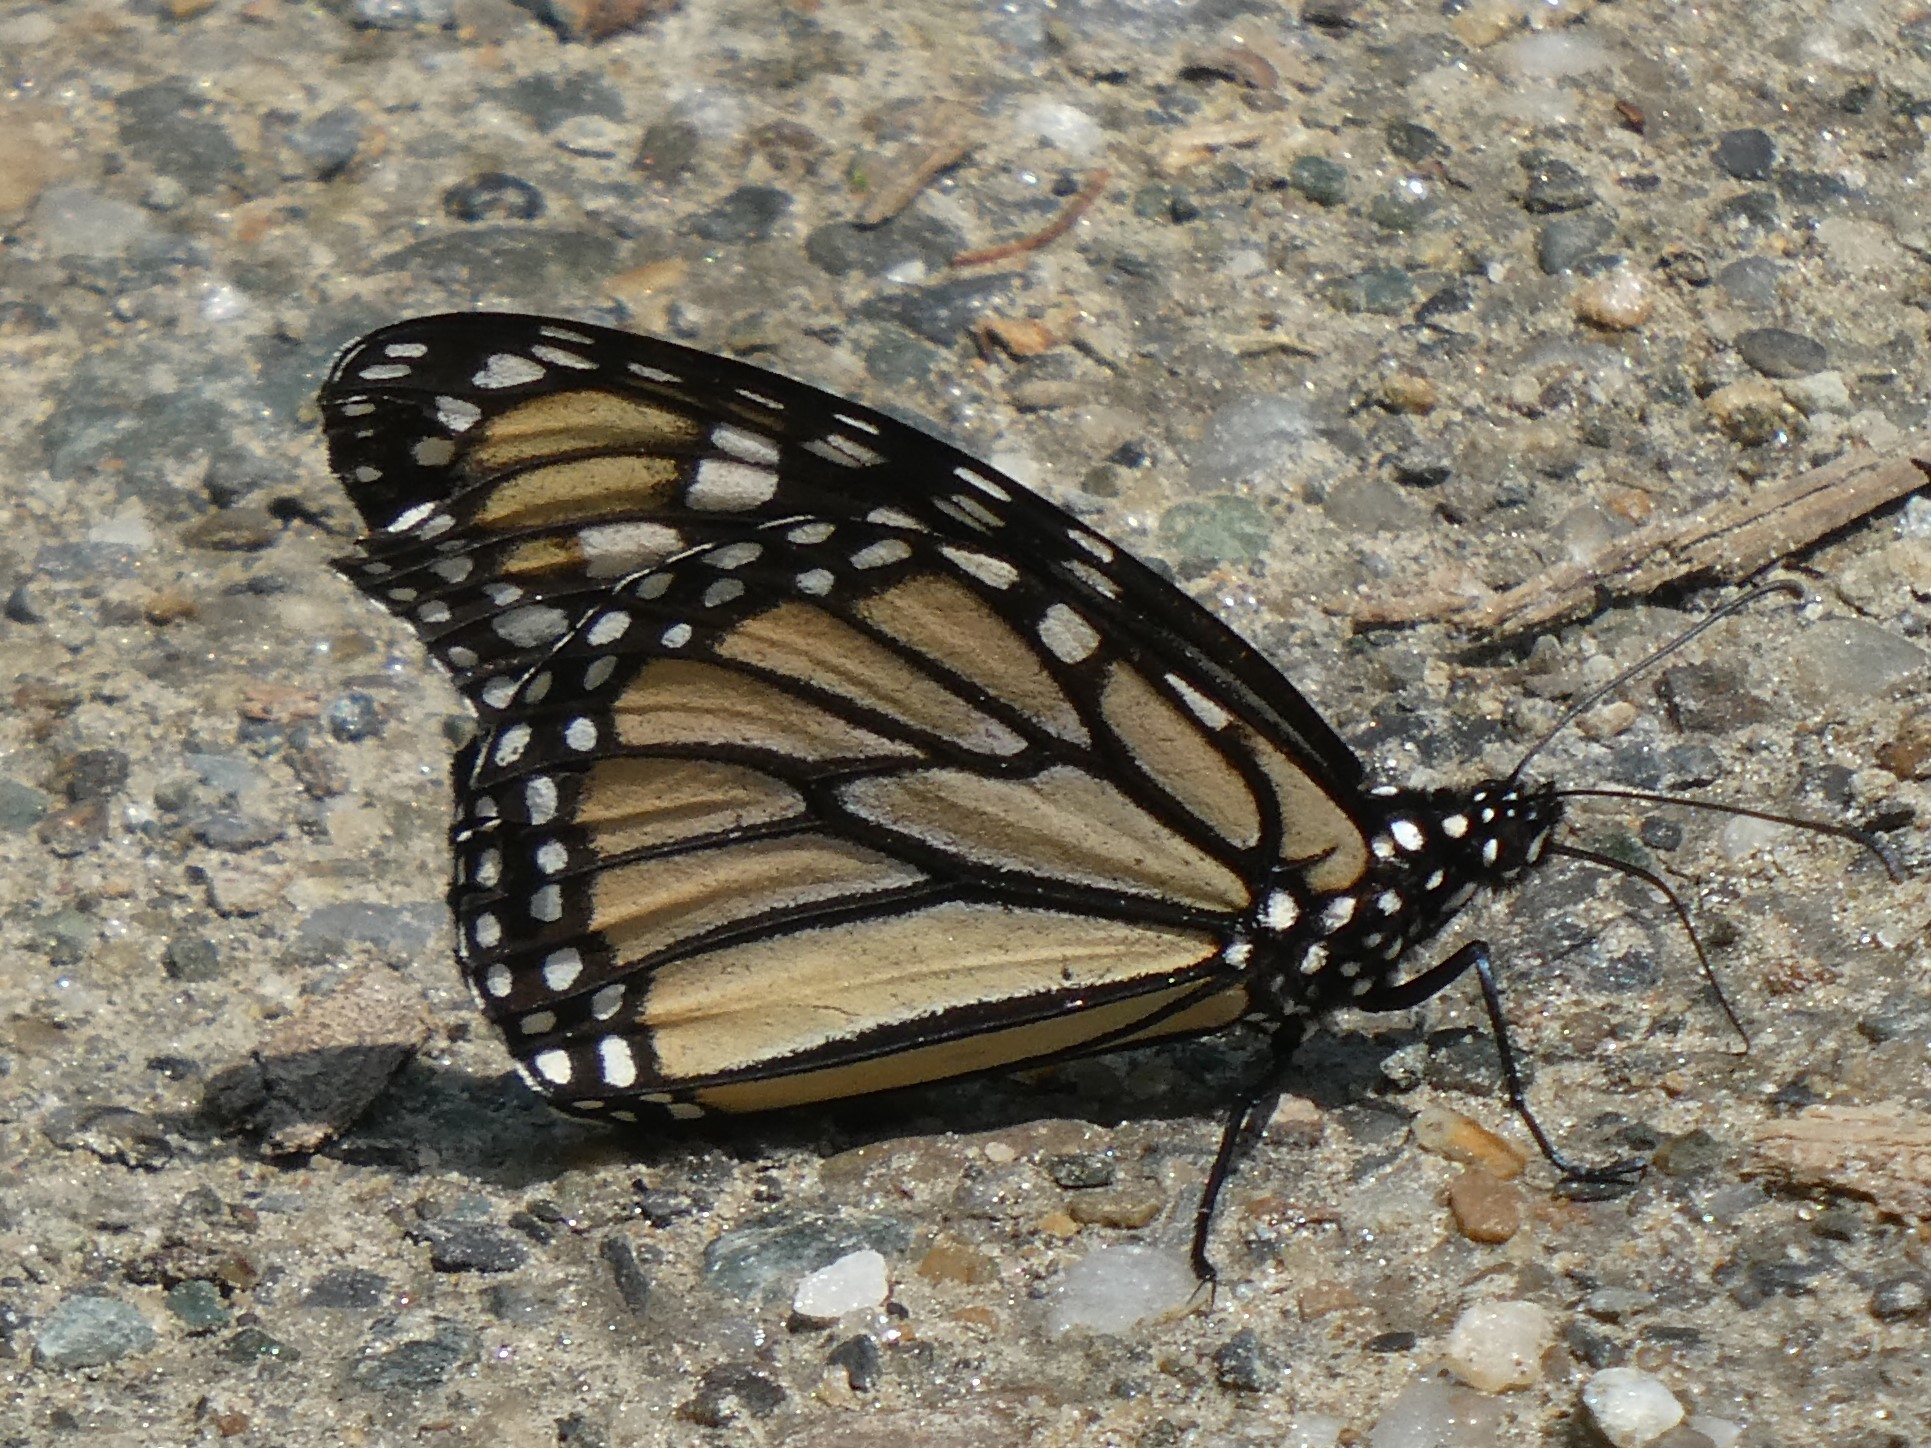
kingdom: Animalia
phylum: Arthropoda
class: Insecta
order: Lepidoptera
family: Nymphalidae
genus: Danaus
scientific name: Danaus plexippus
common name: Monarch
